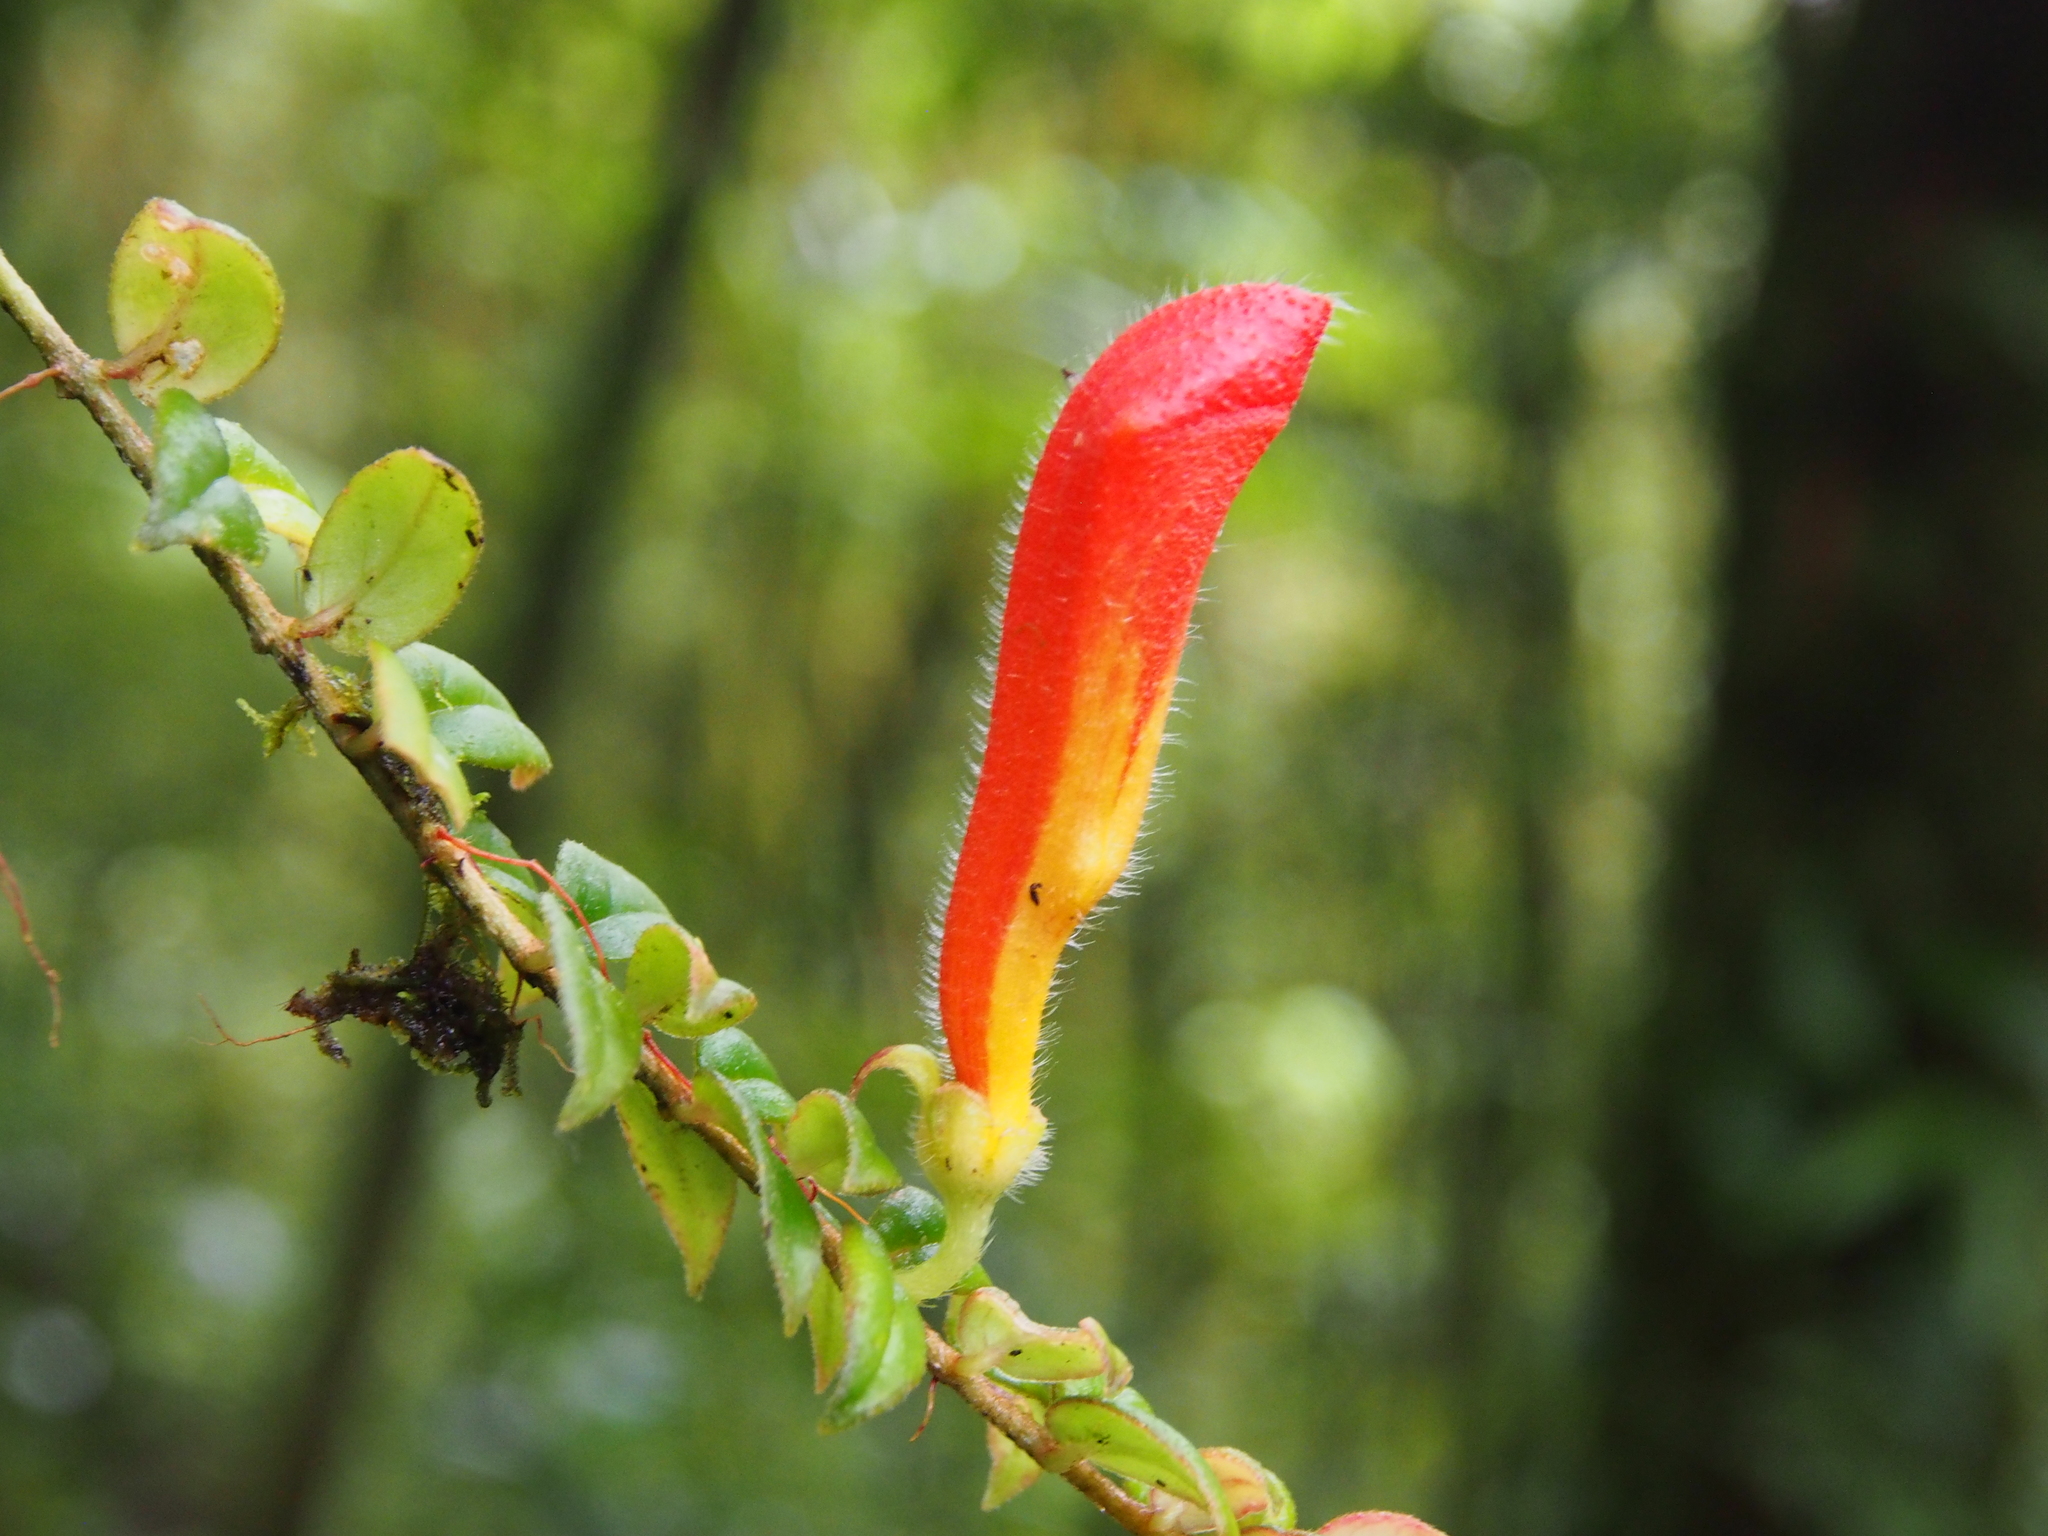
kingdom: Plantae
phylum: Tracheophyta
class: Magnoliopsida
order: Lamiales
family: Gesneriaceae
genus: Columnea
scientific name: Columnea microcalyx
